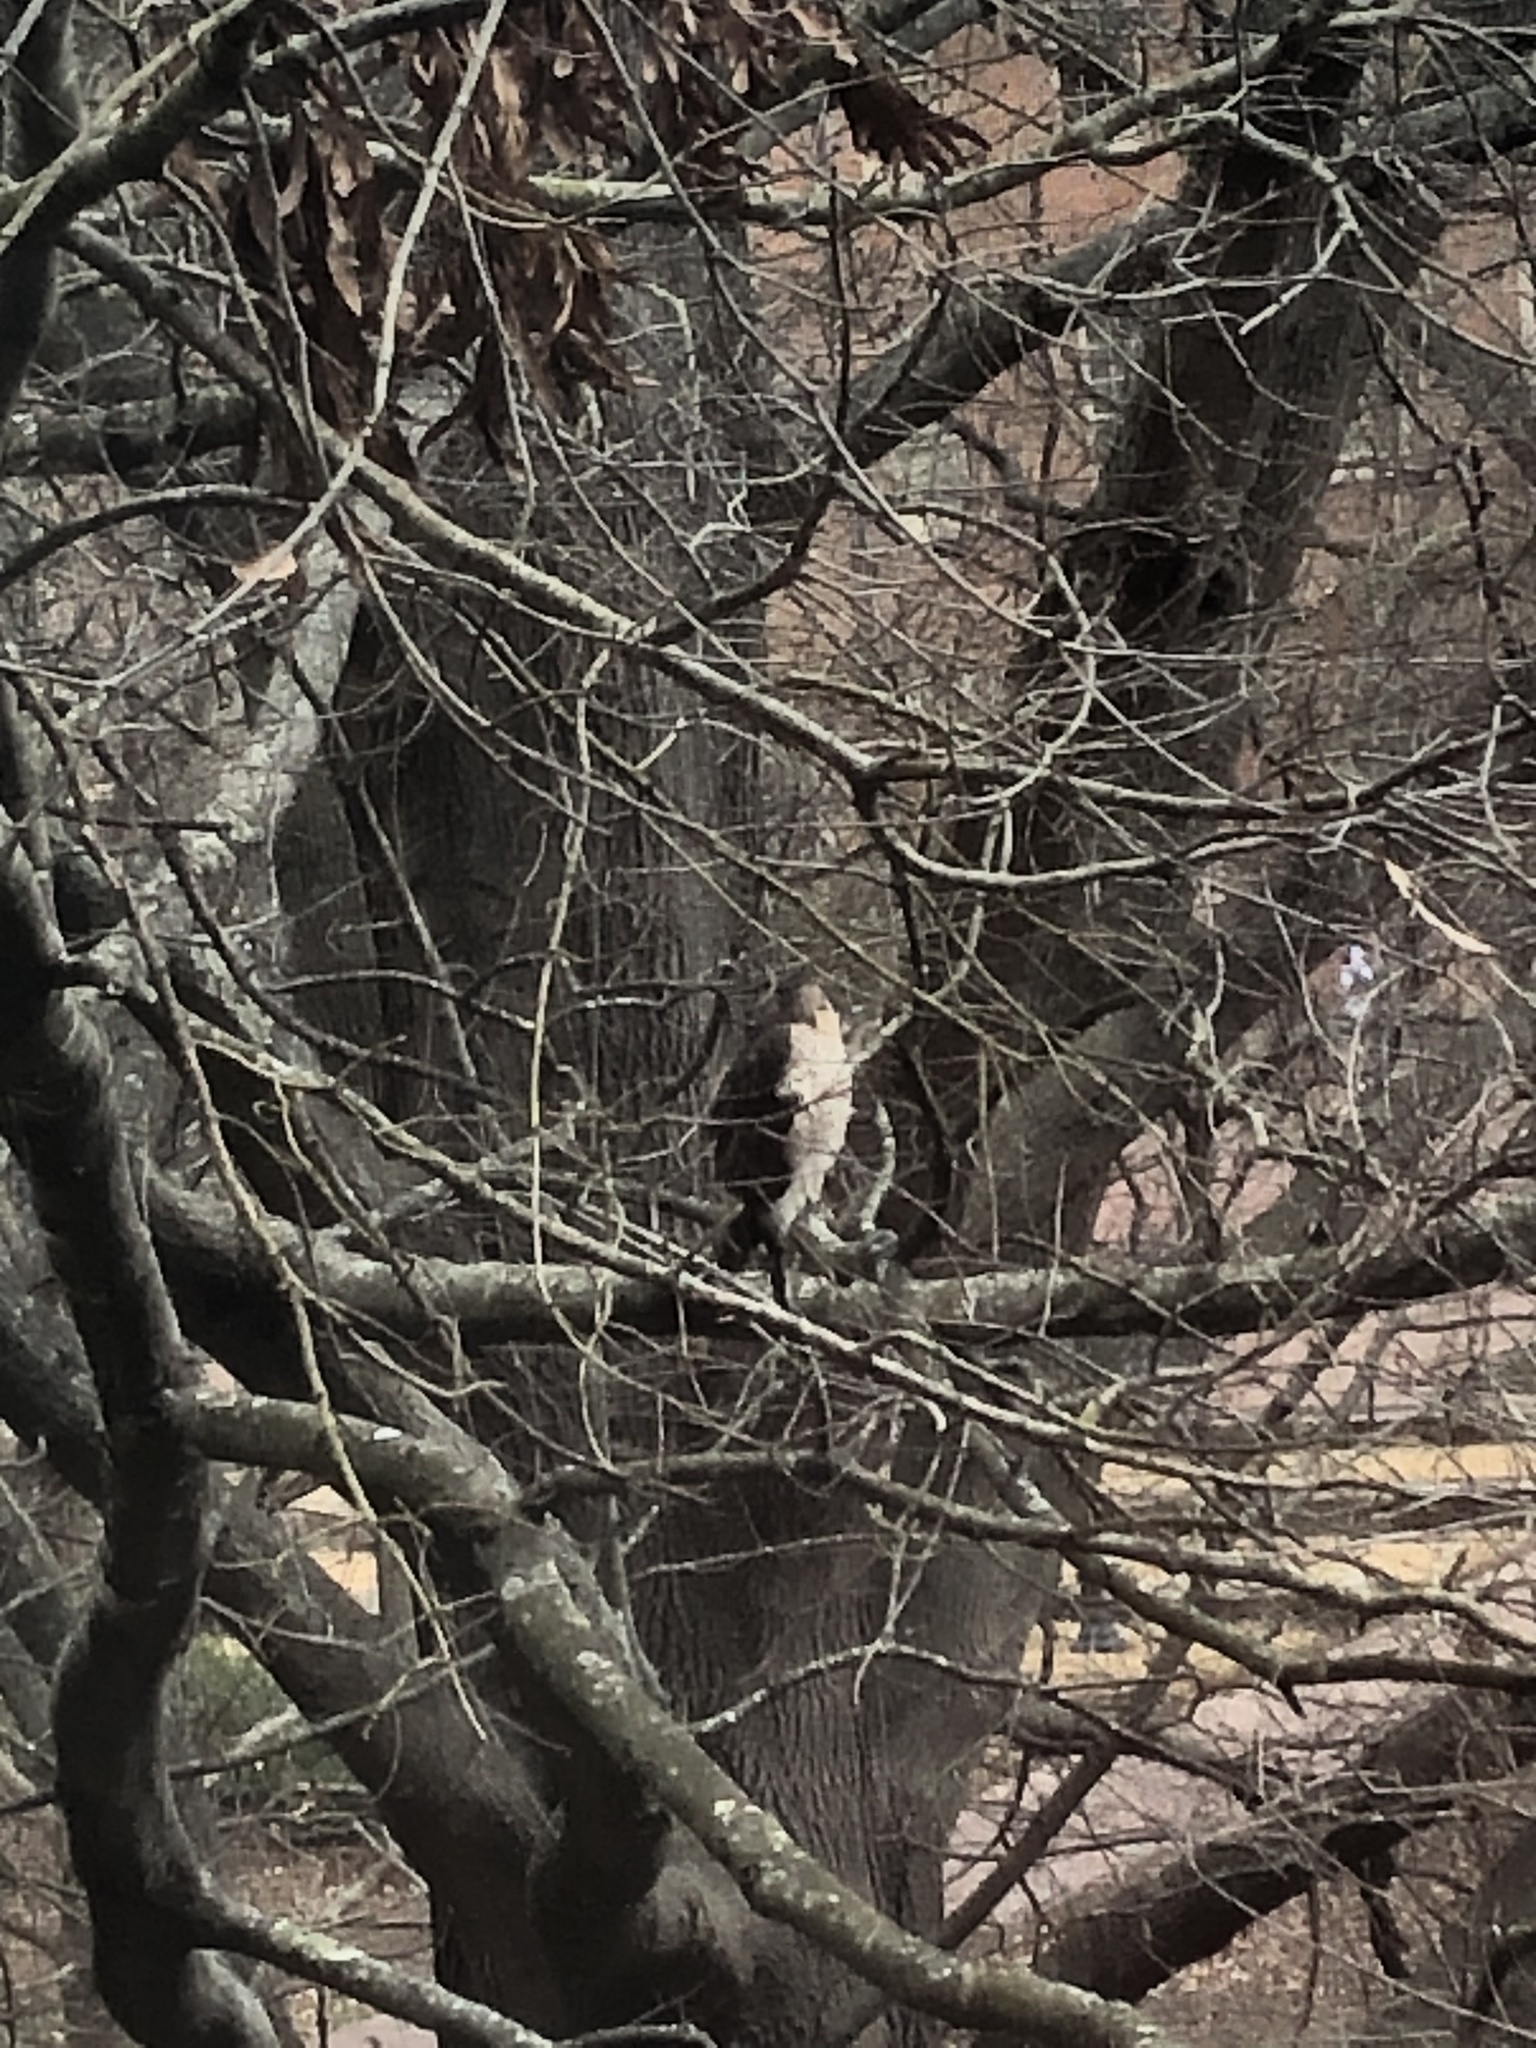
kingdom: Animalia
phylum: Chordata
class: Aves
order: Accipitriformes
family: Accipitridae
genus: Accipiter
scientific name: Accipiter cooperii
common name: Cooper's hawk
